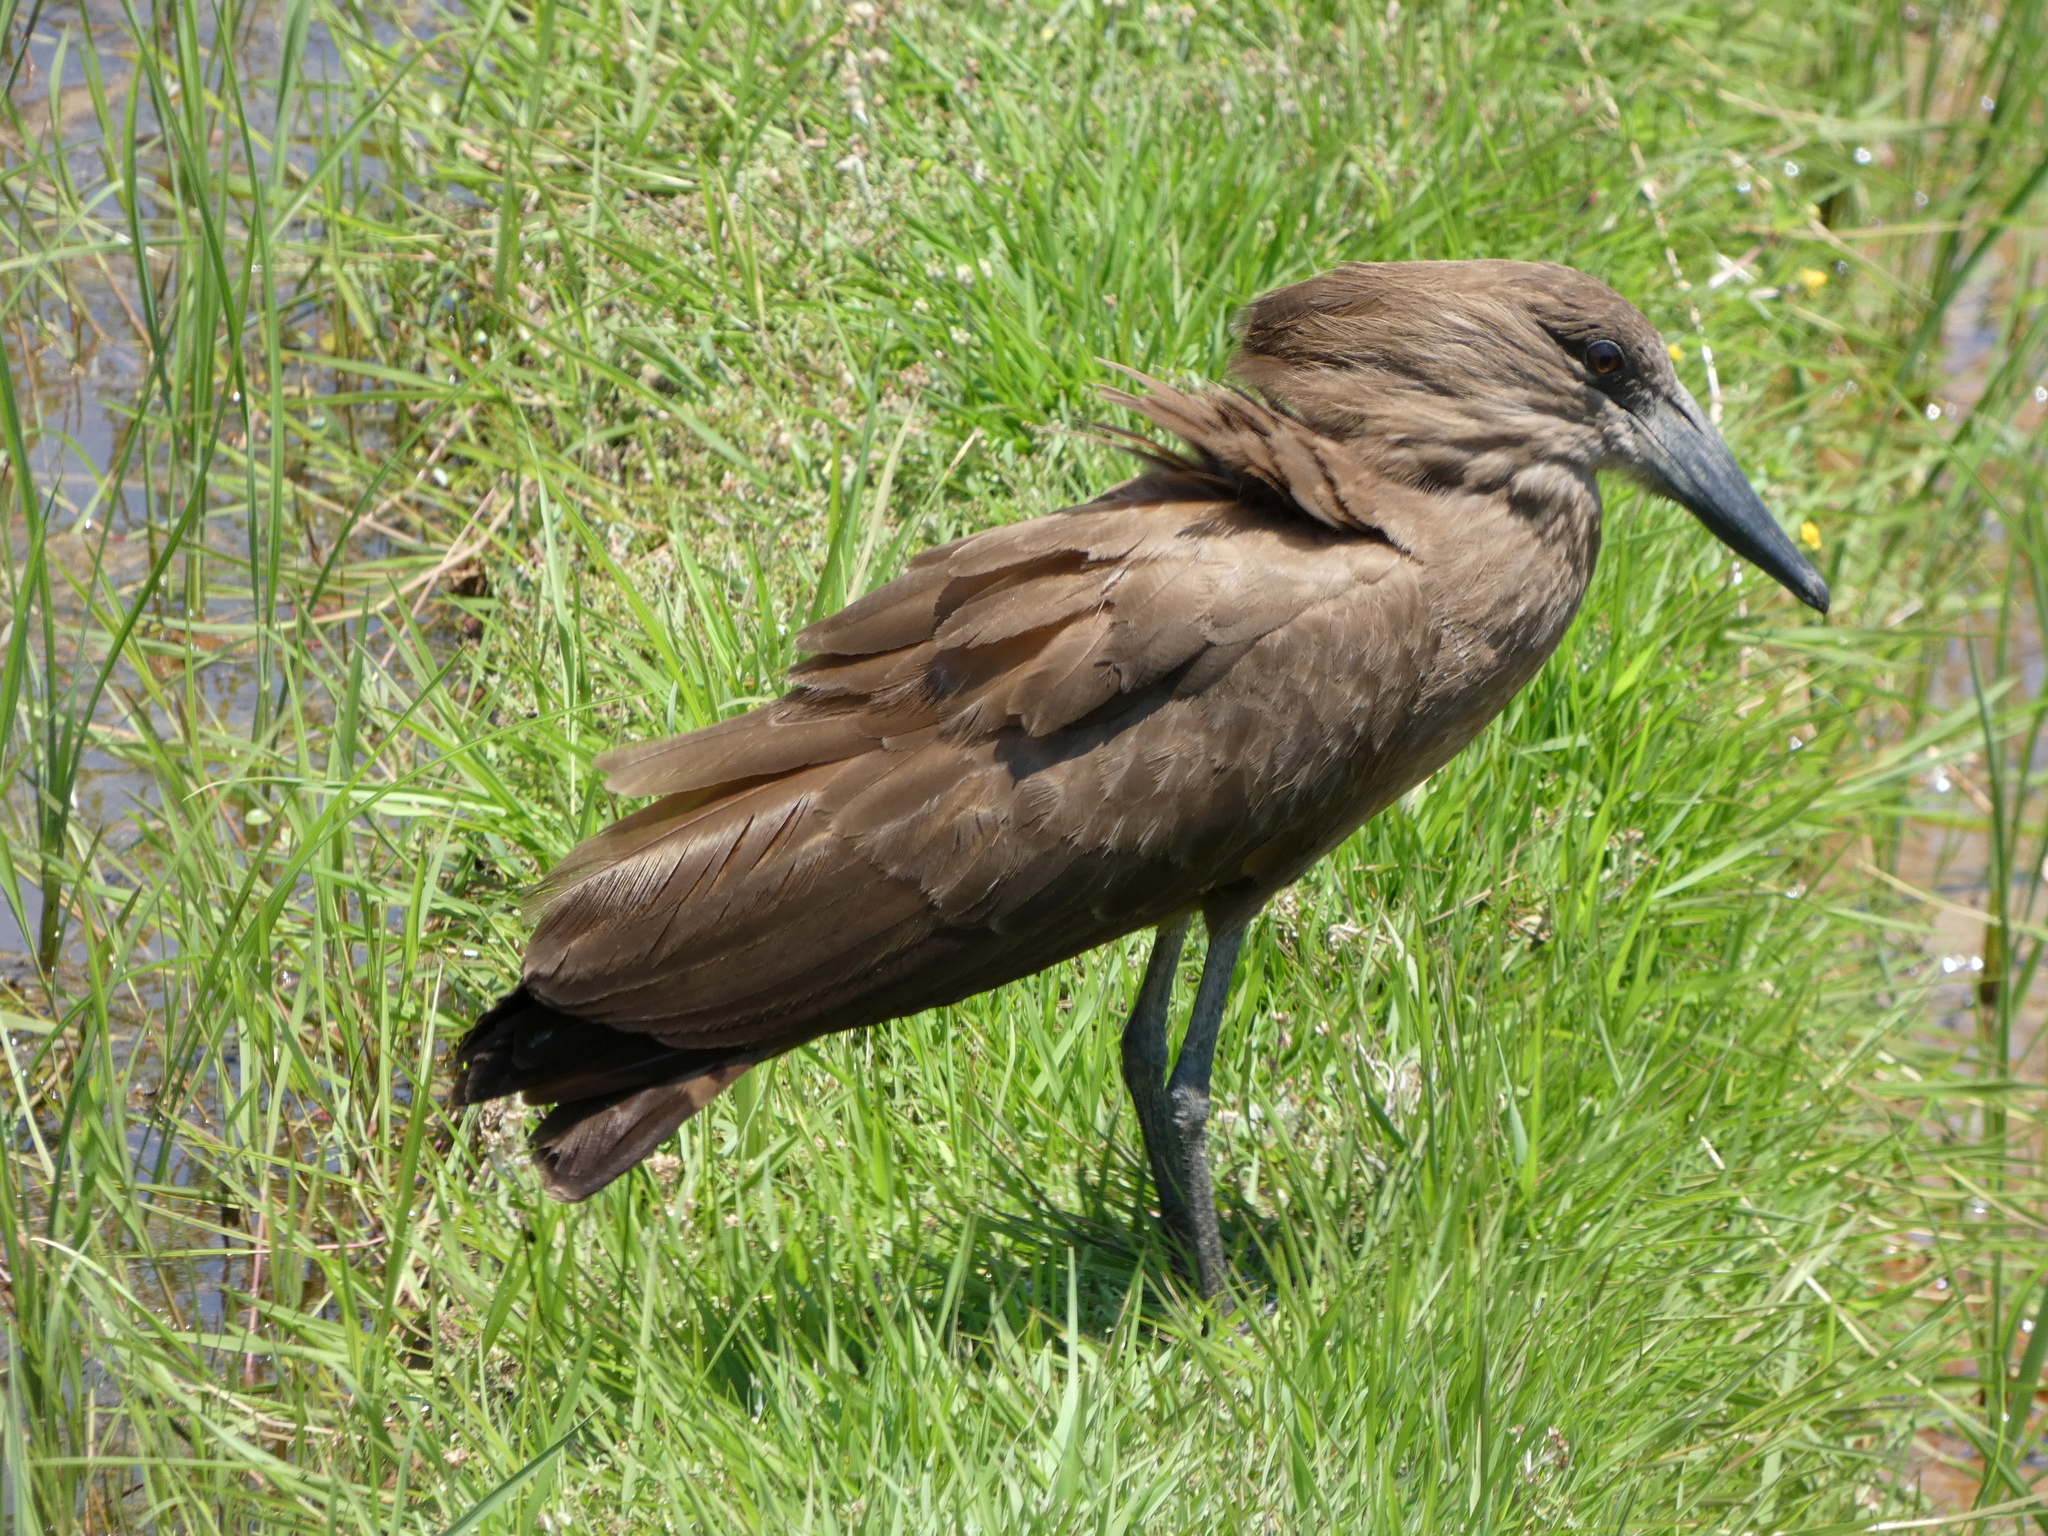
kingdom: Animalia
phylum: Chordata
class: Aves
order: Pelecaniformes
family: Scopidae
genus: Scopus
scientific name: Scopus umbretta
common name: Hamerkop
